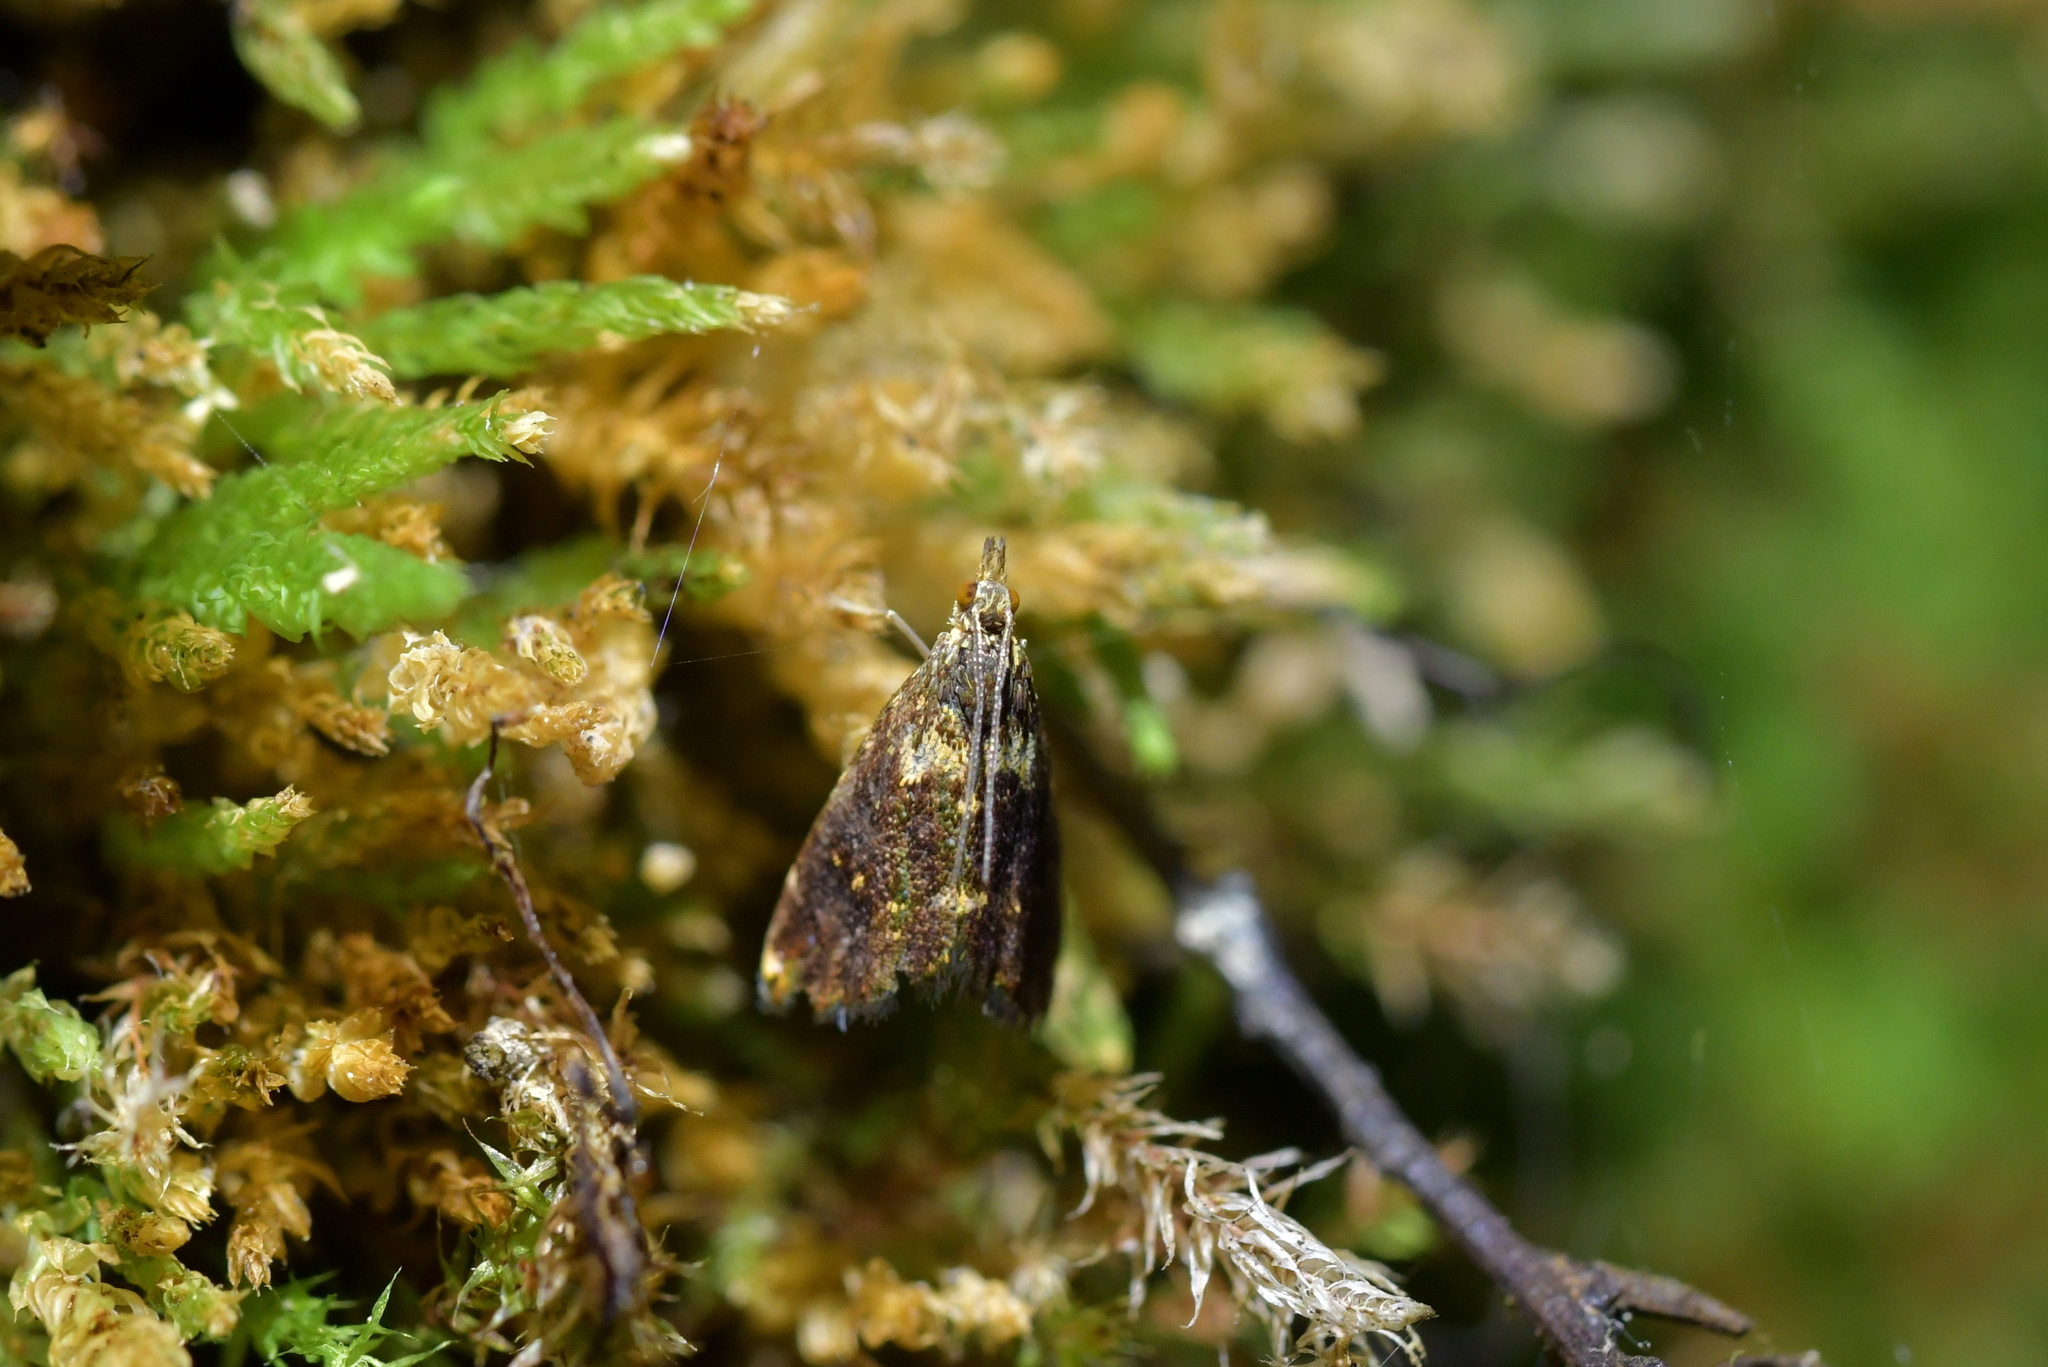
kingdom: Animalia
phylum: Arthropoda
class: Insecta
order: Lepidoptera
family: Crambidae
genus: Glaucocharis
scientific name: Glaucocharis microdora
